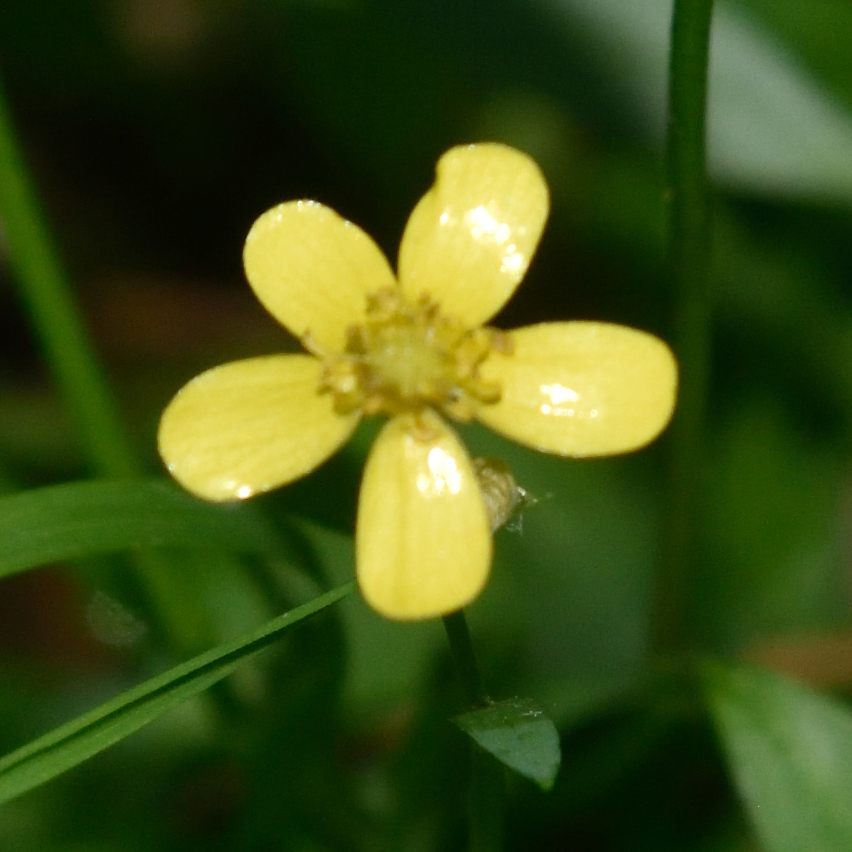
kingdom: Plantae
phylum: Tracheophyta
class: Magnoliopsida
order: Ranunculales
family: Ranunculaceae
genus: Ranunculus
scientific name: Ranunculus flammula
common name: Lesser spearwort
